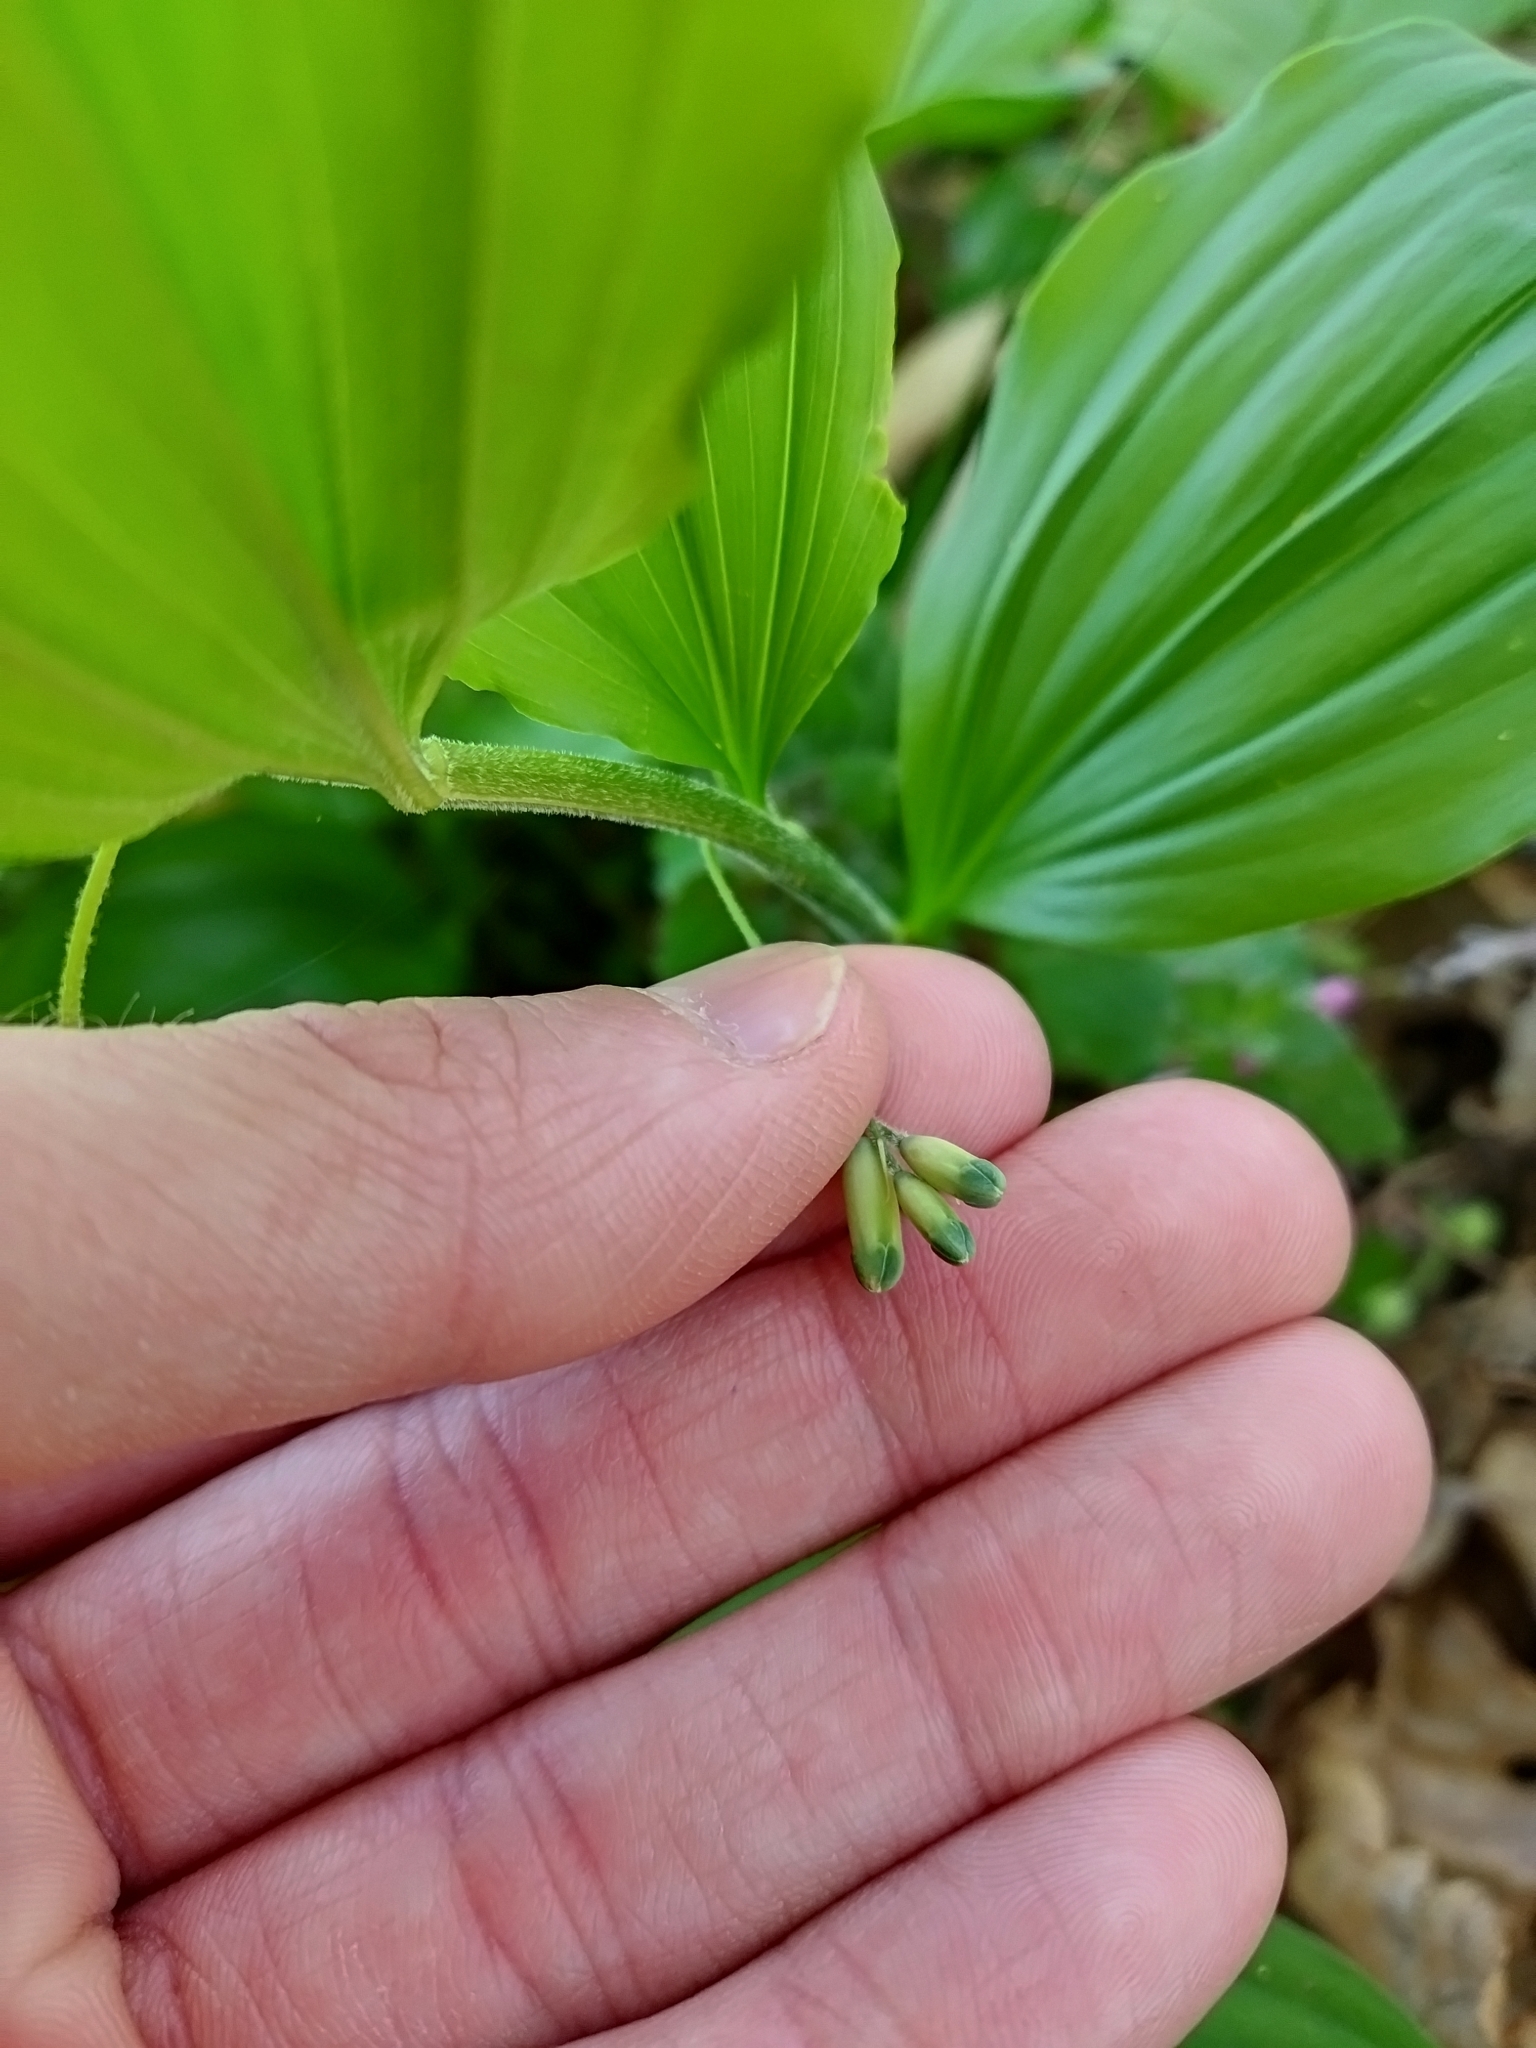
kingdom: Plantae
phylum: Tracheophyta
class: Liliopsida
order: Asparagales
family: Asparagaceae
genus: Polygonatum
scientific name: Polygonatum latifolium
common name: Broadleaf solomon's seal
